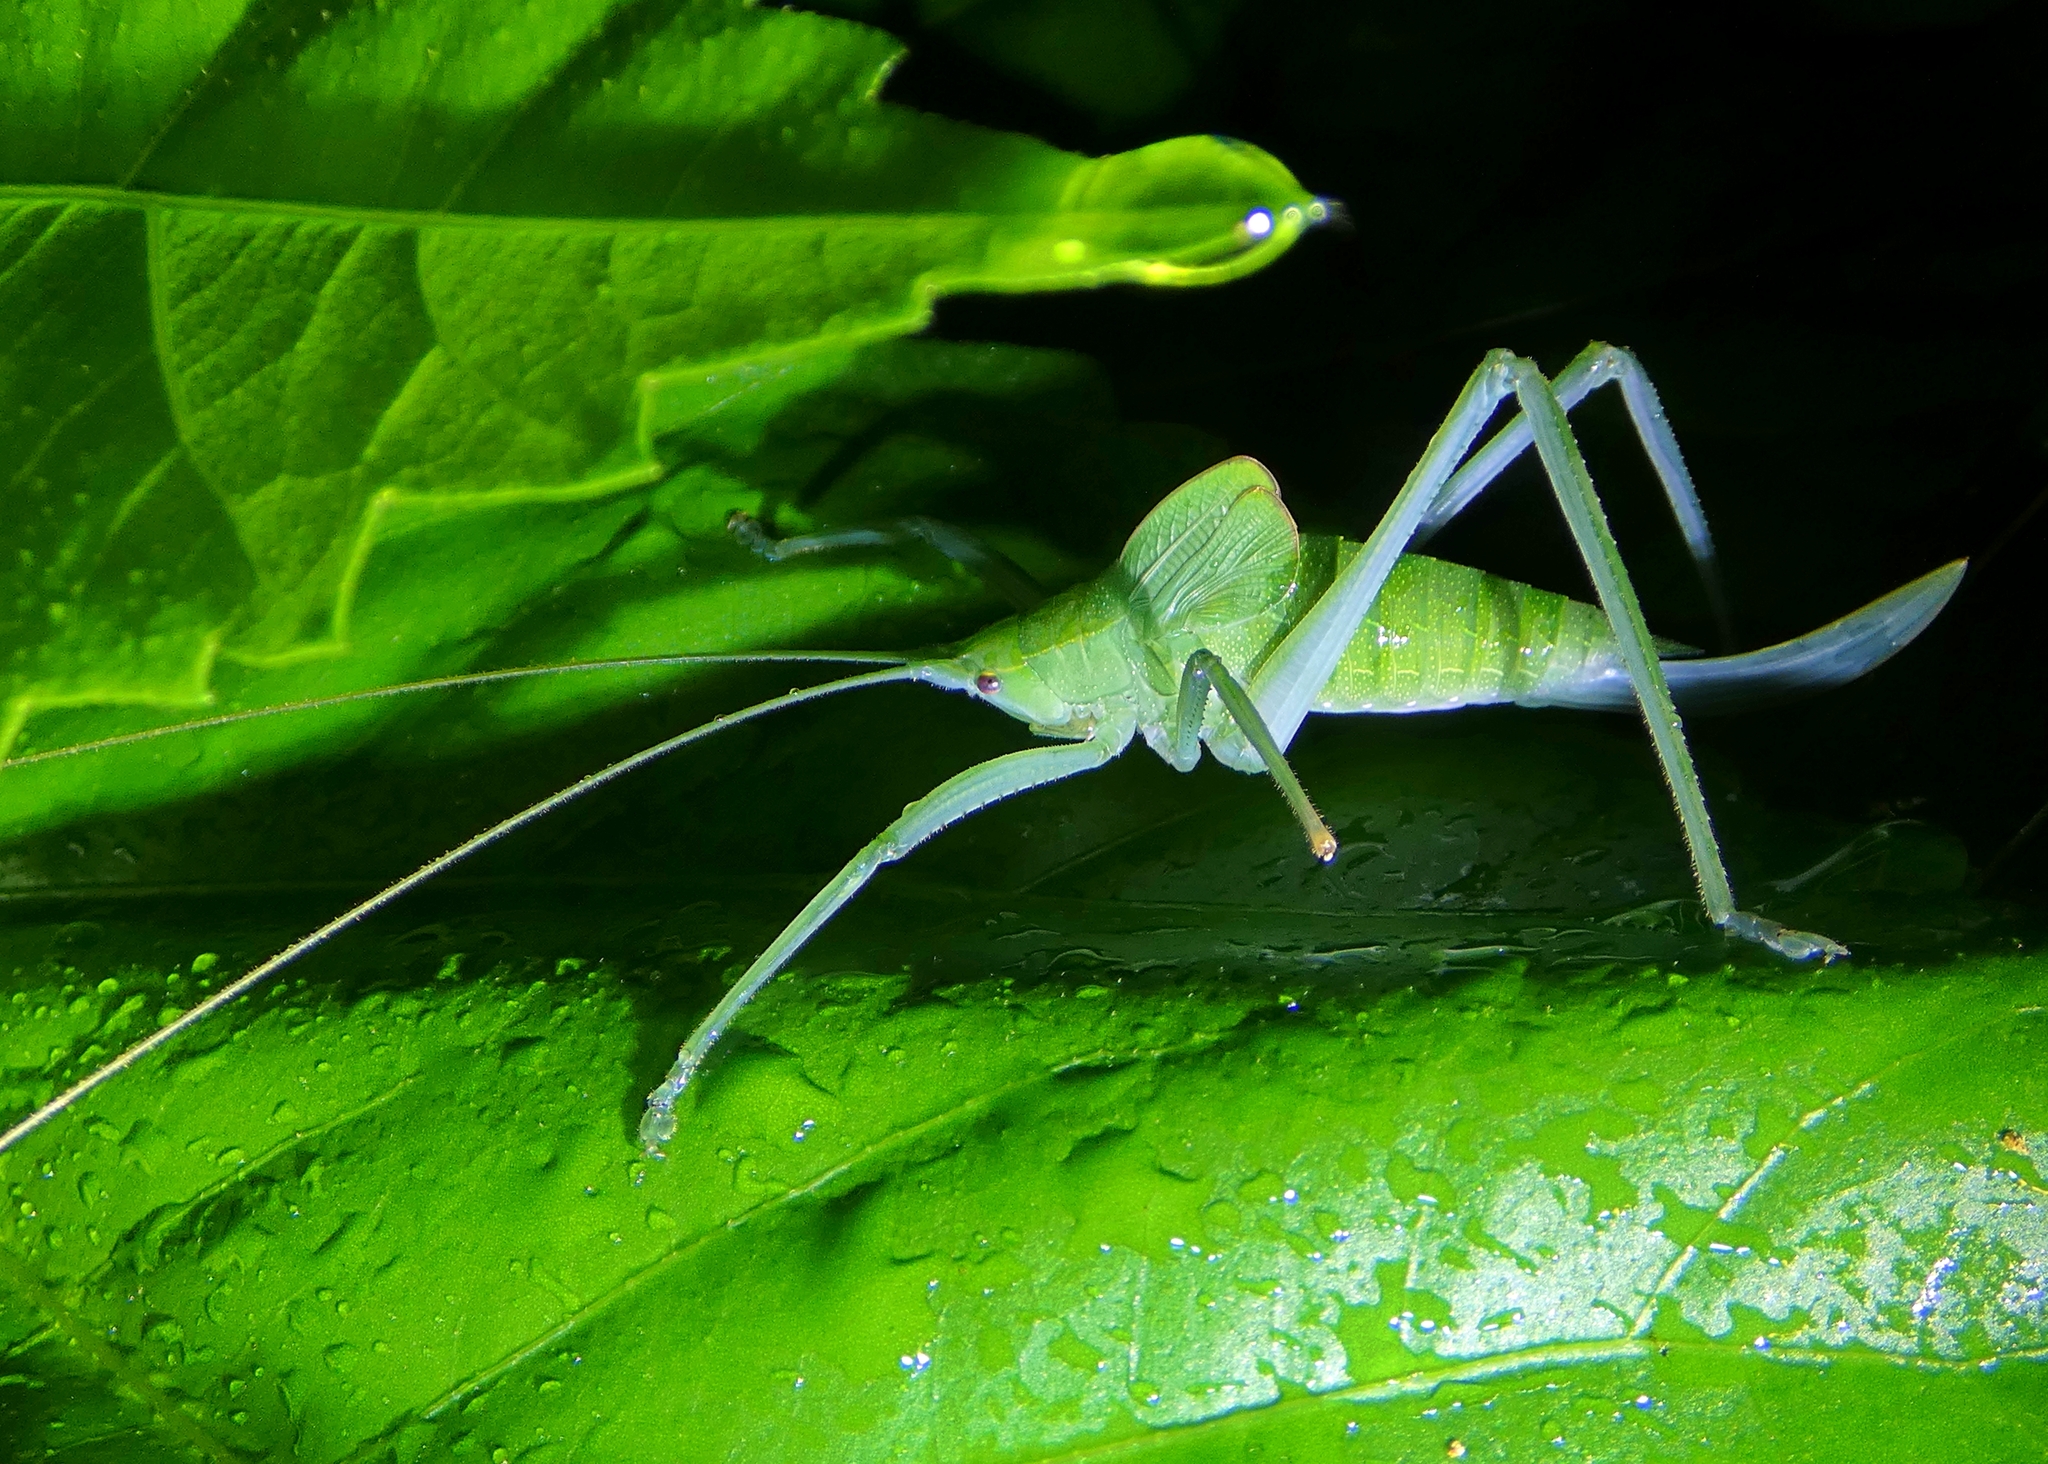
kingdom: Animalia
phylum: Arthropoda
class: Insecta
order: Orthoptera
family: Tettigoniidae
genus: Mastighaphoides
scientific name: Mastighaphoides tuberculatus
